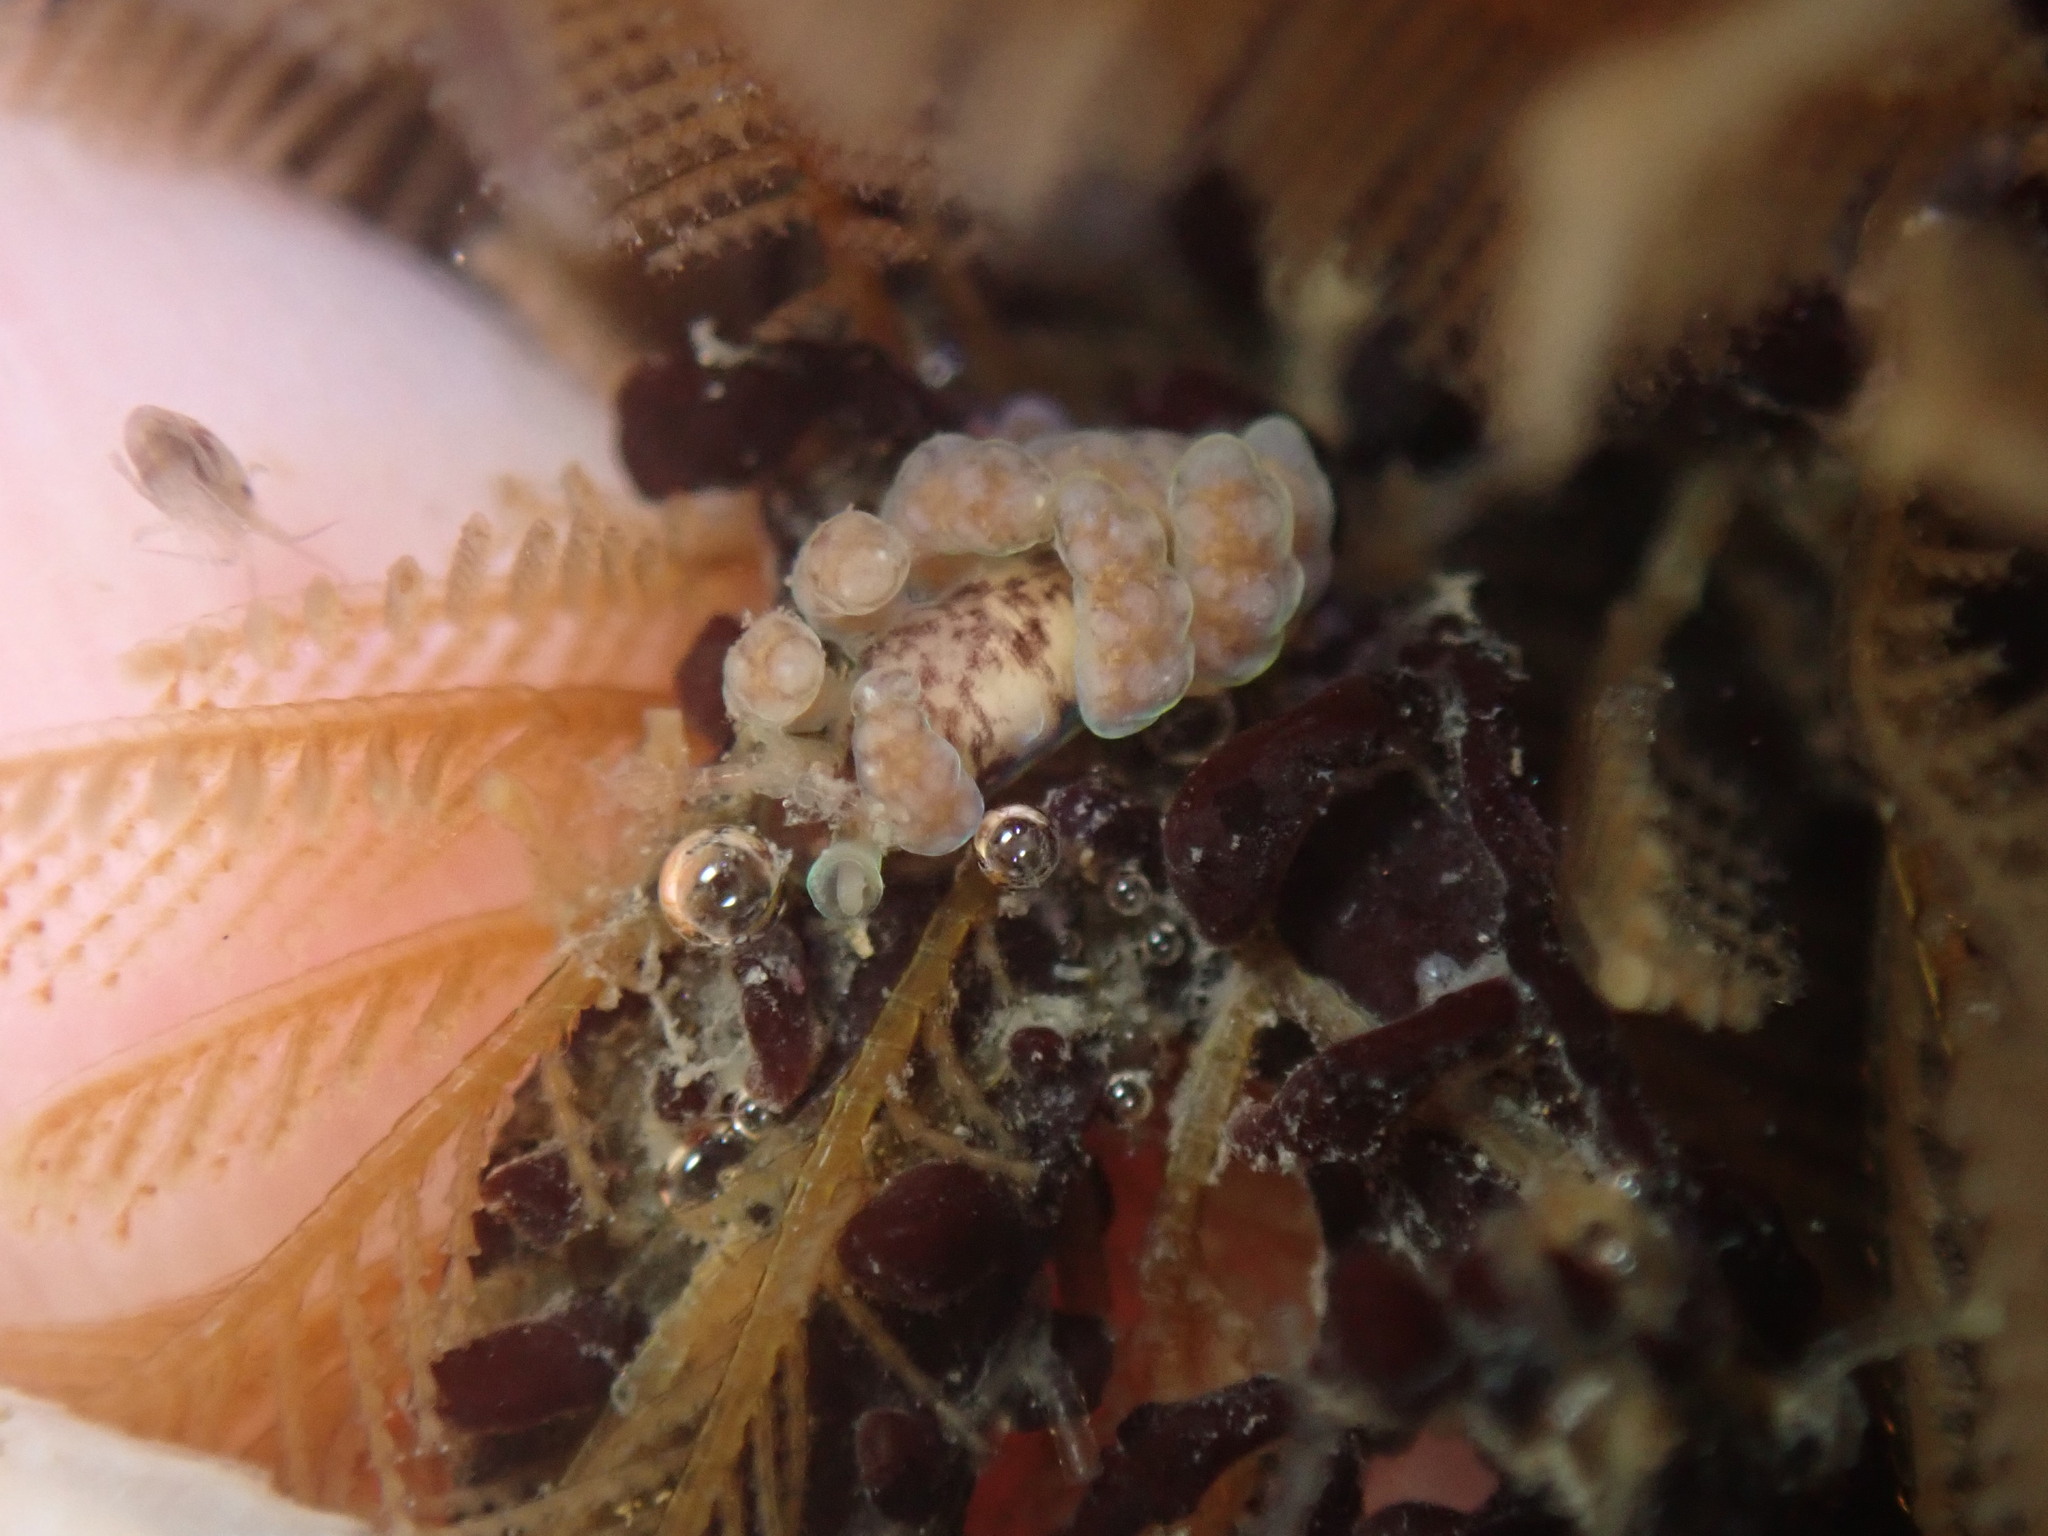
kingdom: Animalia
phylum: Mollusca
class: Gastropoda
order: Nudibranchia
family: Dotidae
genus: Doto
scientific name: Doto columbiana
